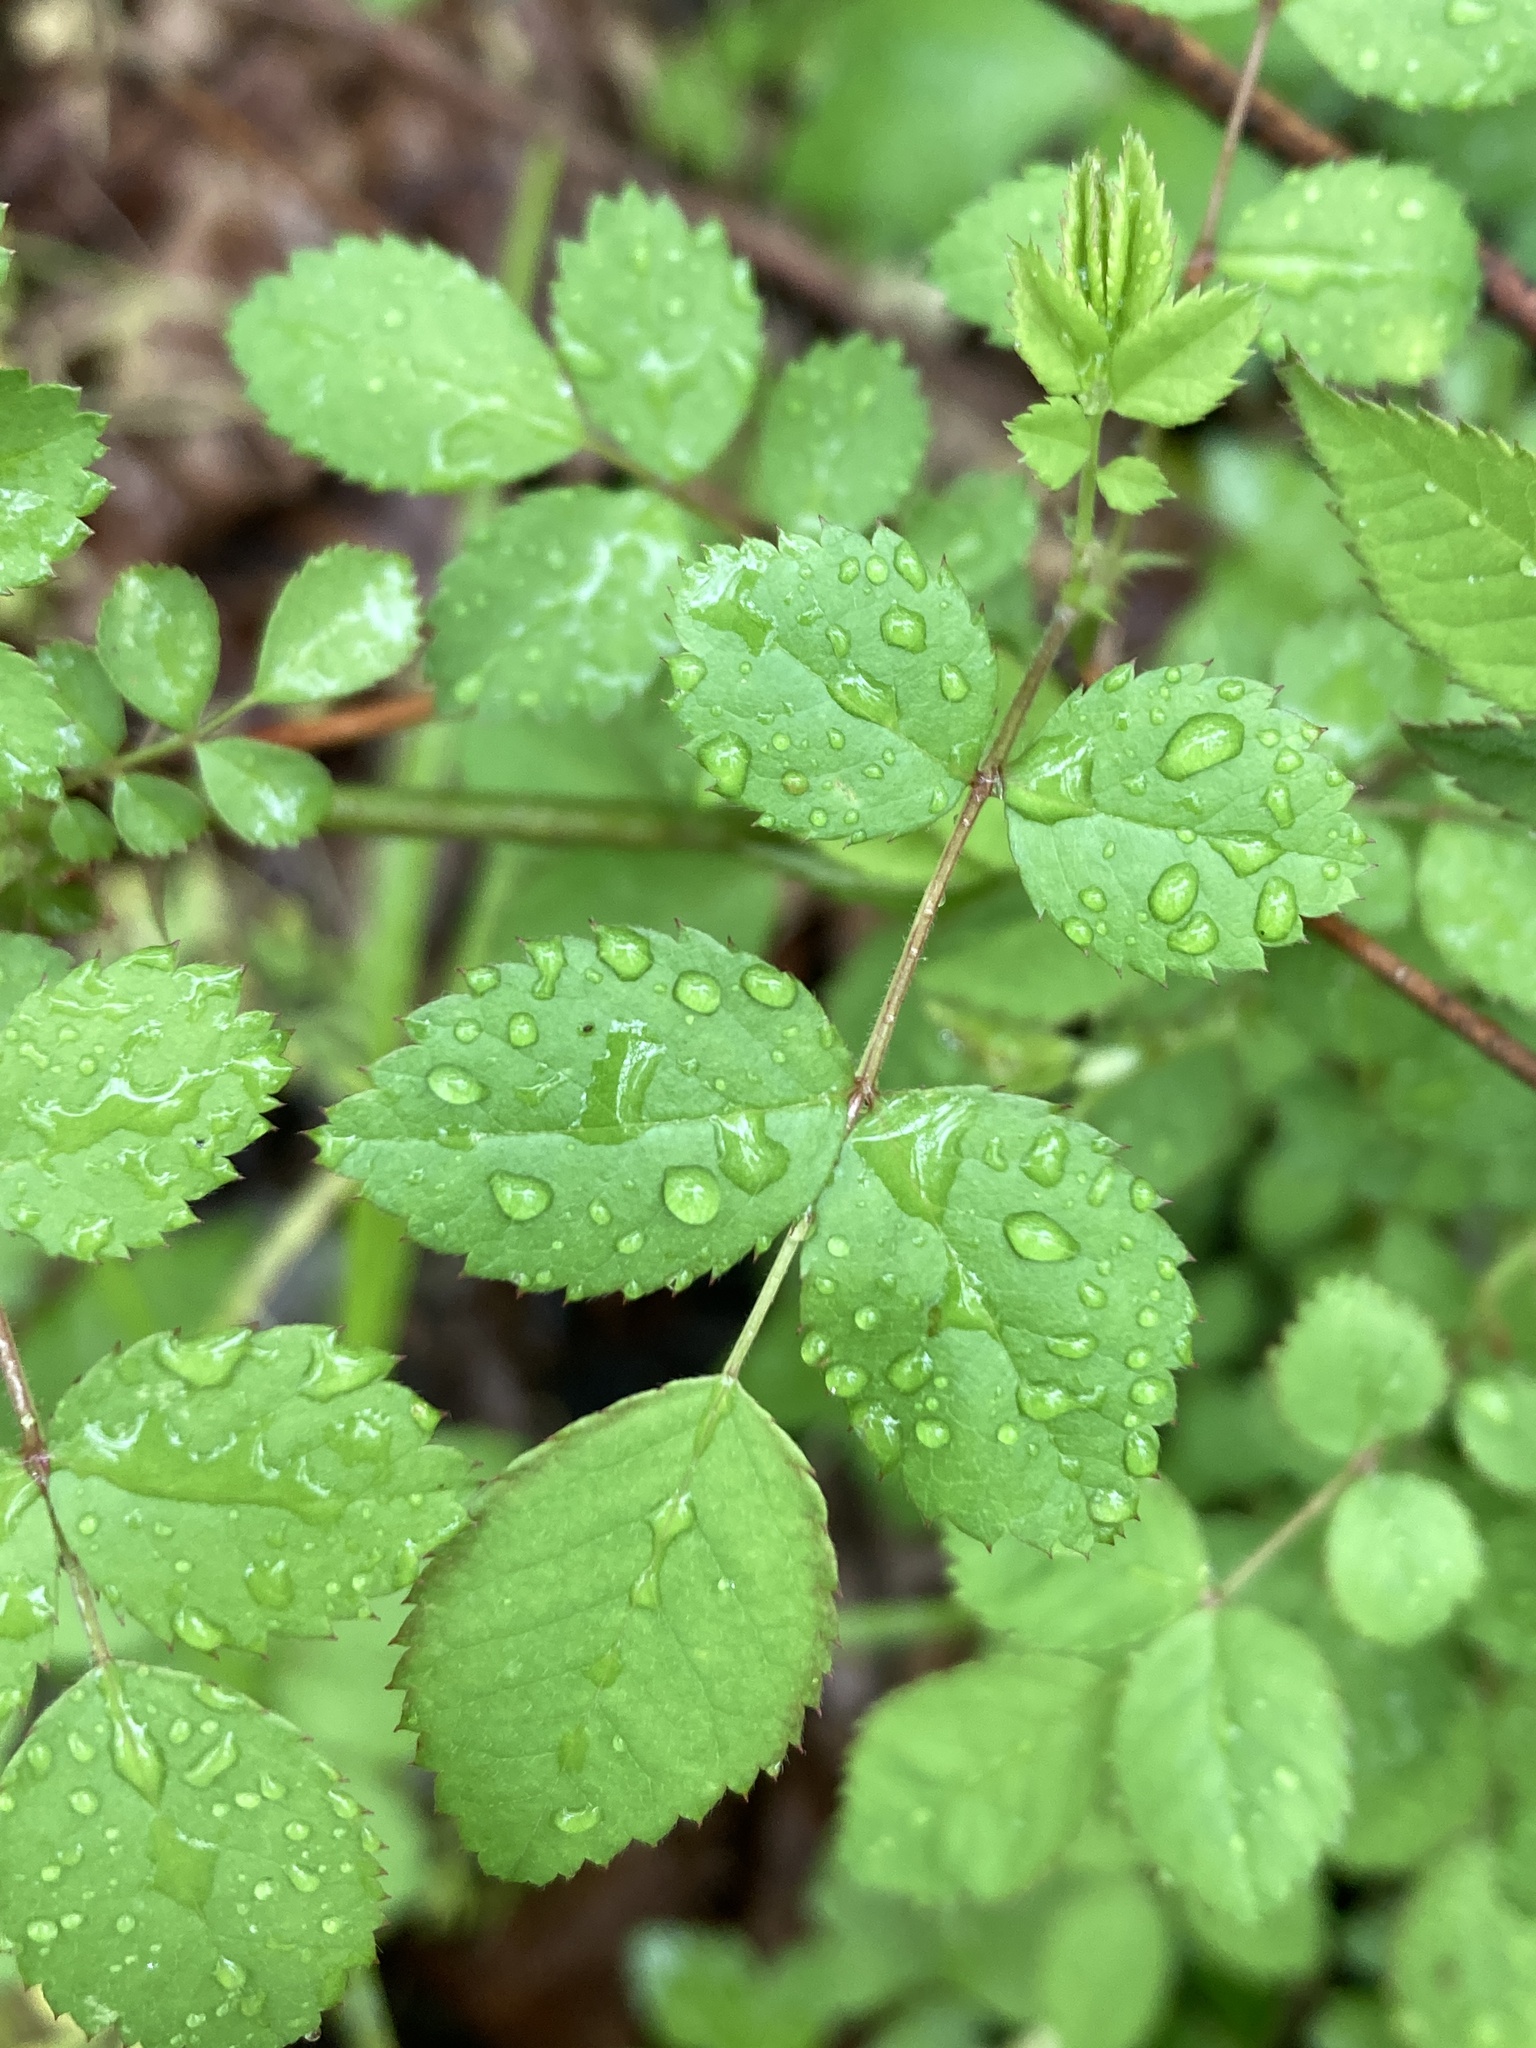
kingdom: Plantae
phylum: Tracheophyta
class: Magnoliopsida
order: Rosales
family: Rosaceae
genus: Rosa
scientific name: Rosa multiflora
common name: Multiflora rose
